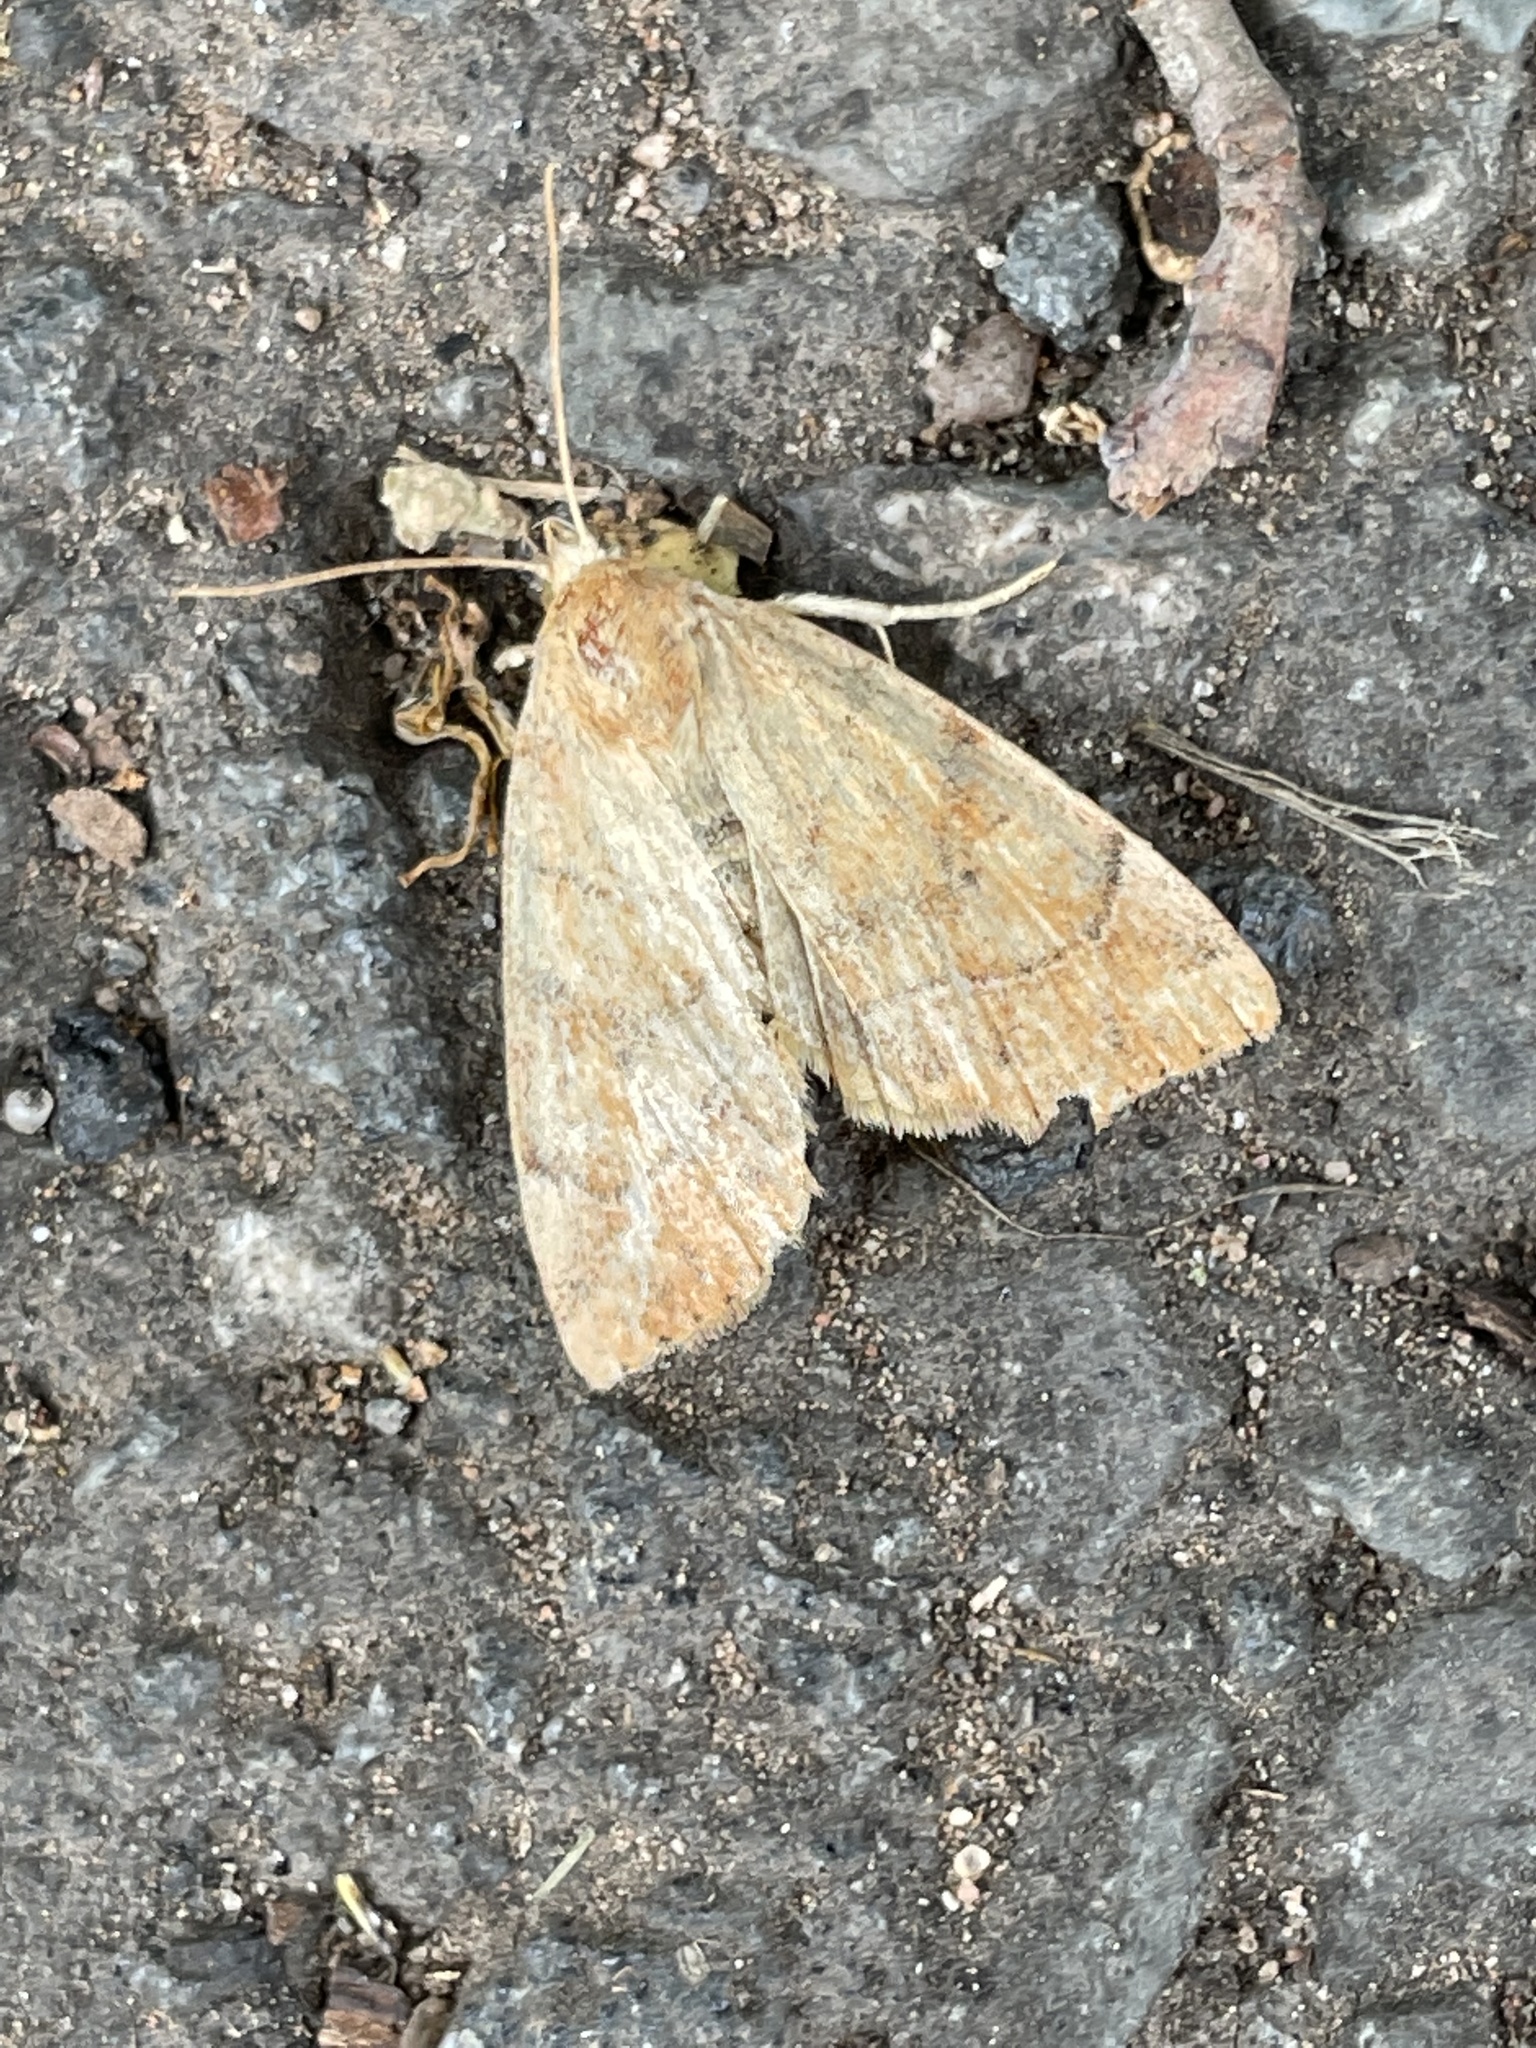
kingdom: Animalia
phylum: Arthropoda
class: Insecta
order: Lepidoptera
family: Noctuidae
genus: Cosmia
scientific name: Cosmia trapezina
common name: Dun-bar
